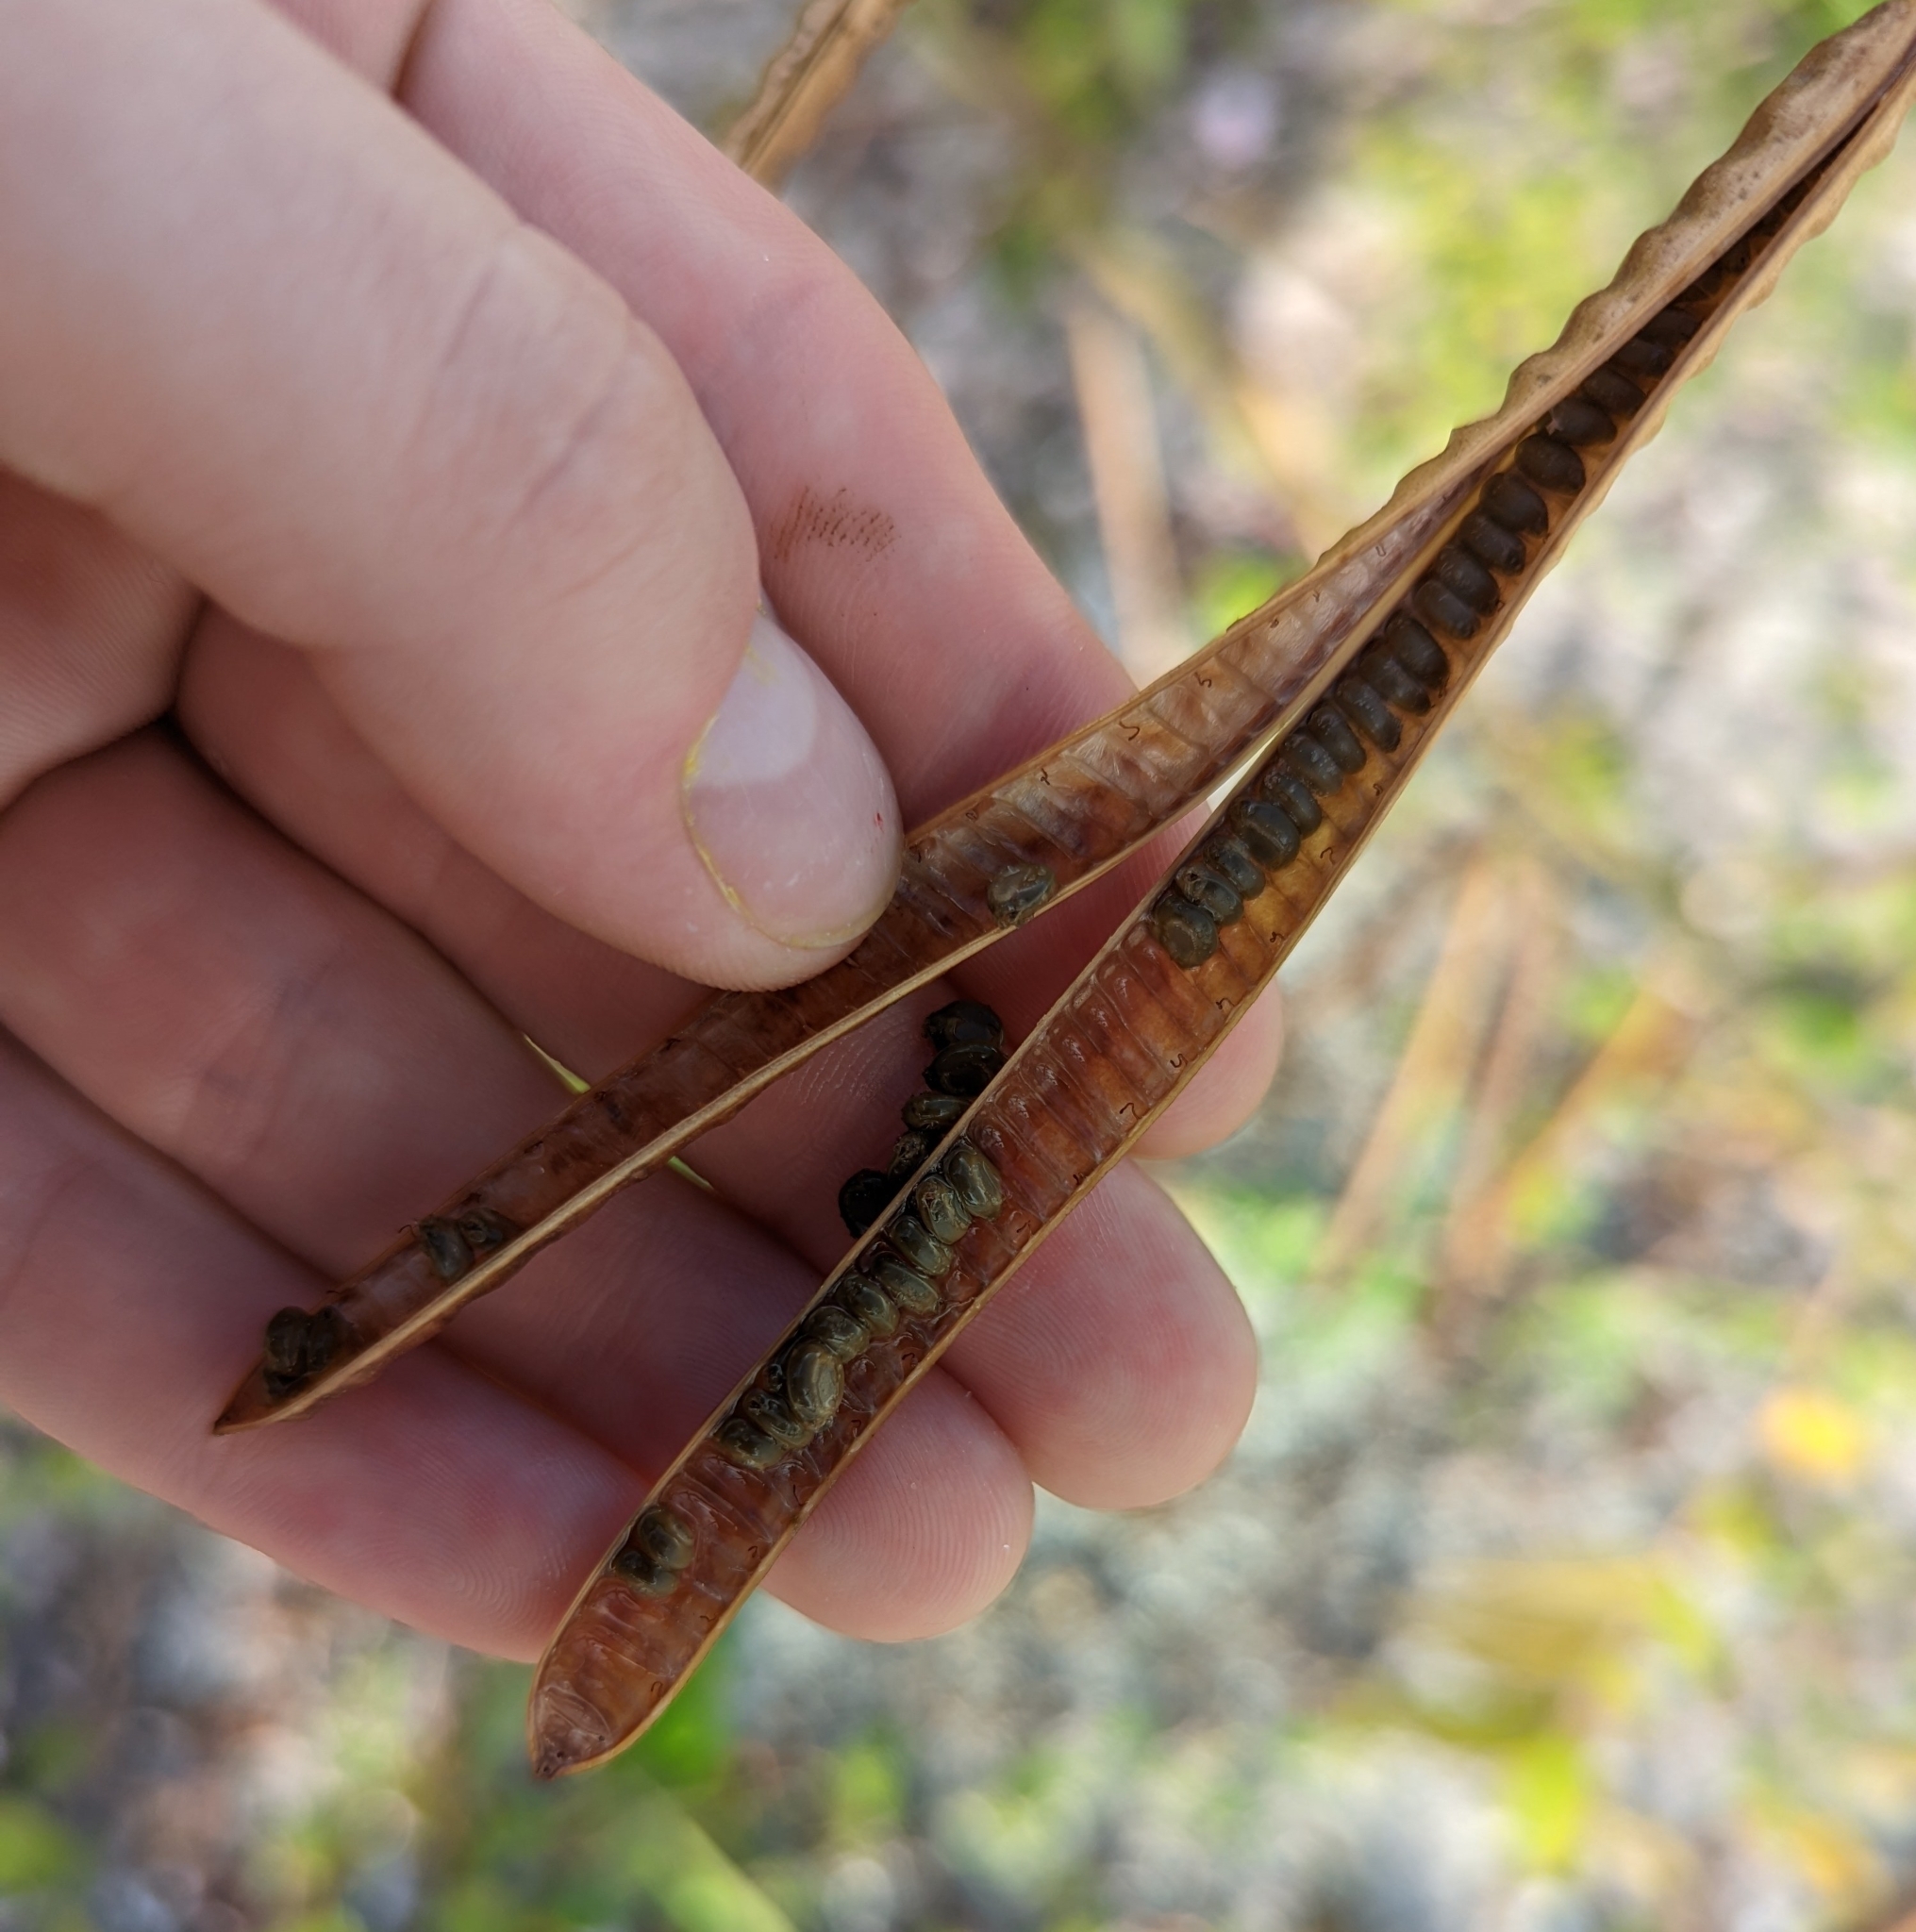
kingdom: Plantae
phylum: Tracheophyta
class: Magnoliopsida
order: Fabales
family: Fabaceae
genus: Senna
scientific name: Senna occidentalis
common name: Septicweed
